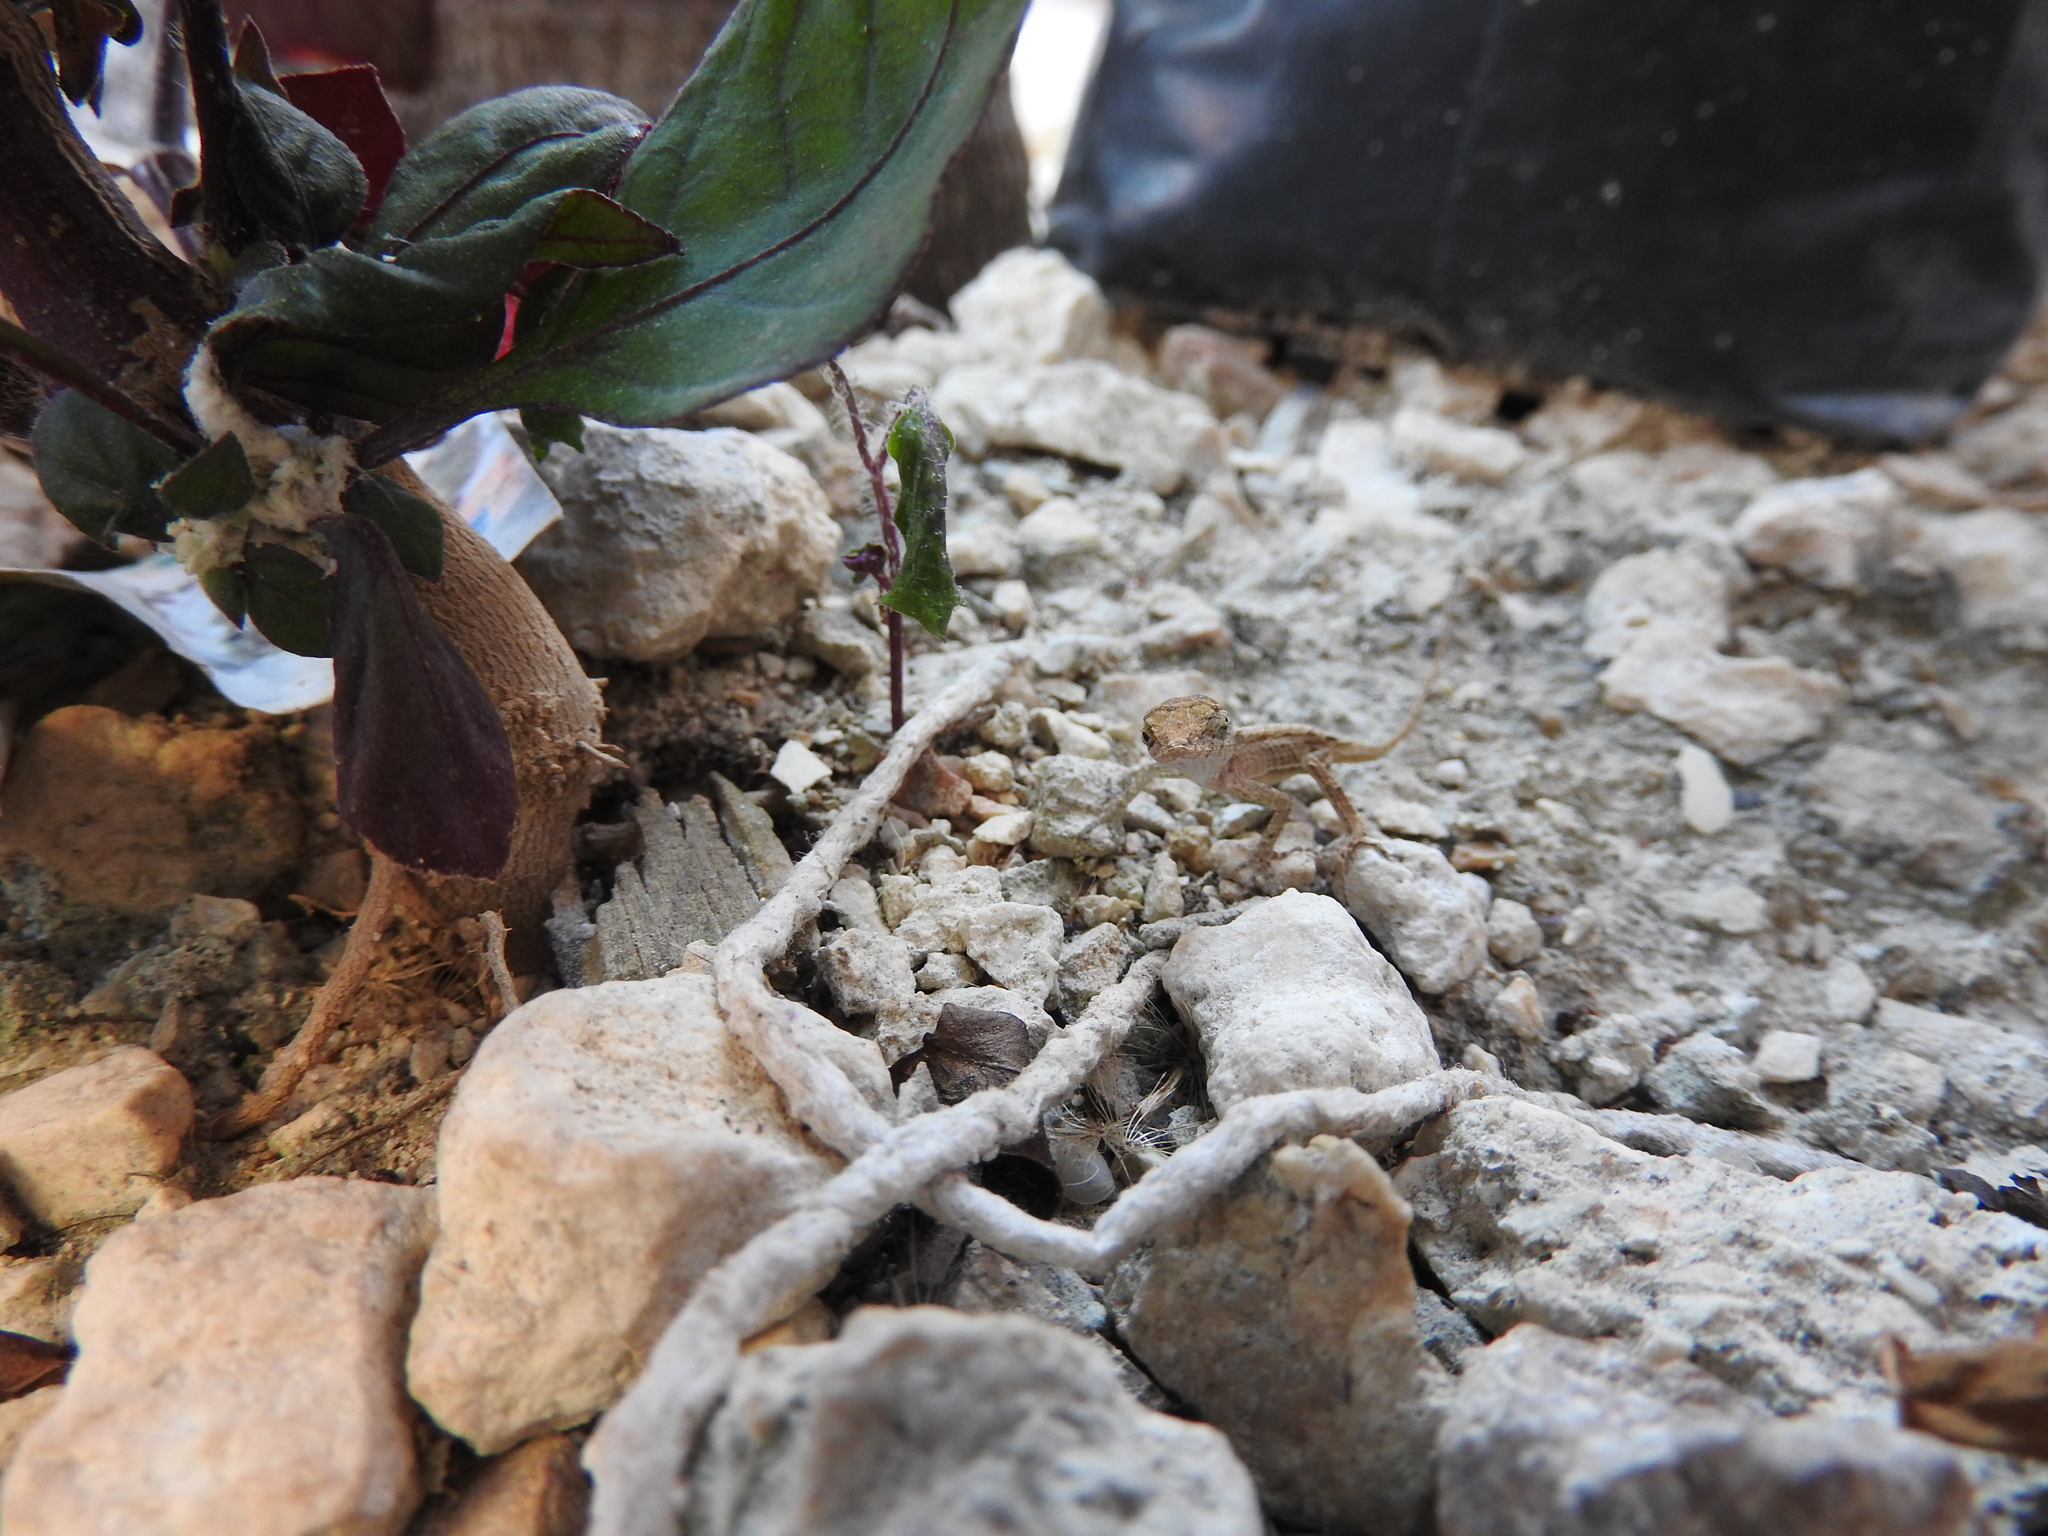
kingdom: Animalia
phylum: Chordata
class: Squamata
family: Dactyloidae
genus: Anolis
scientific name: Anolis sagrei
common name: Brown anole
